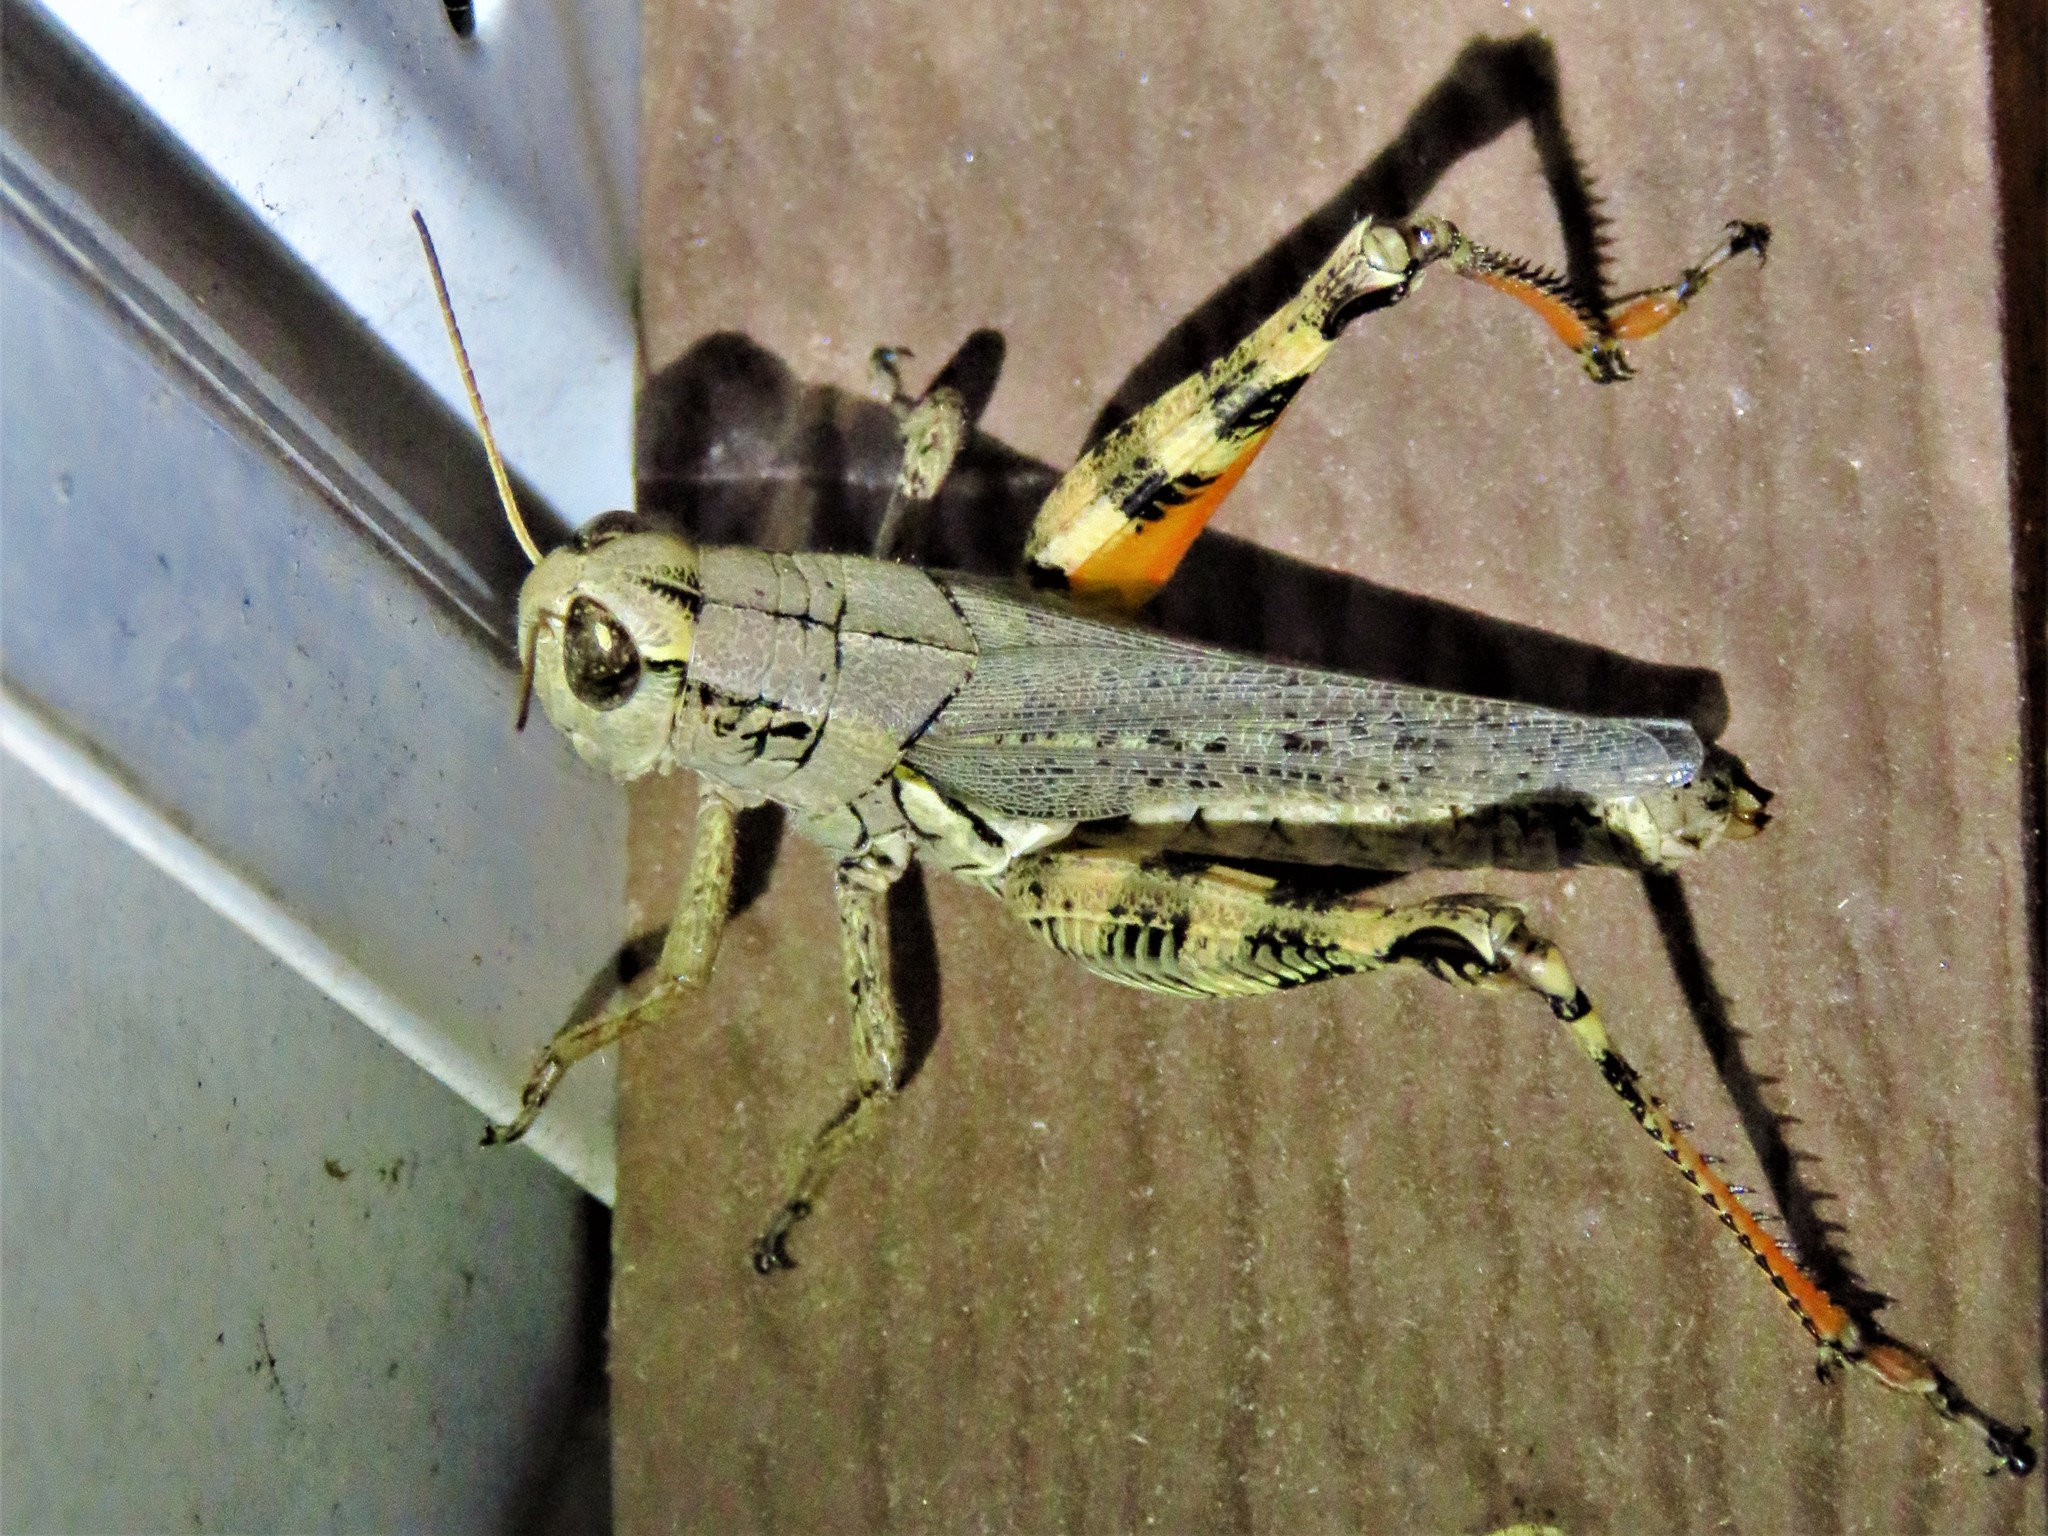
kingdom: Animalia
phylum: Arthropoda
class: Insecta
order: Orthoptera
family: Acrididae
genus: Melanoplus
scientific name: Melanoplus ponderosus
